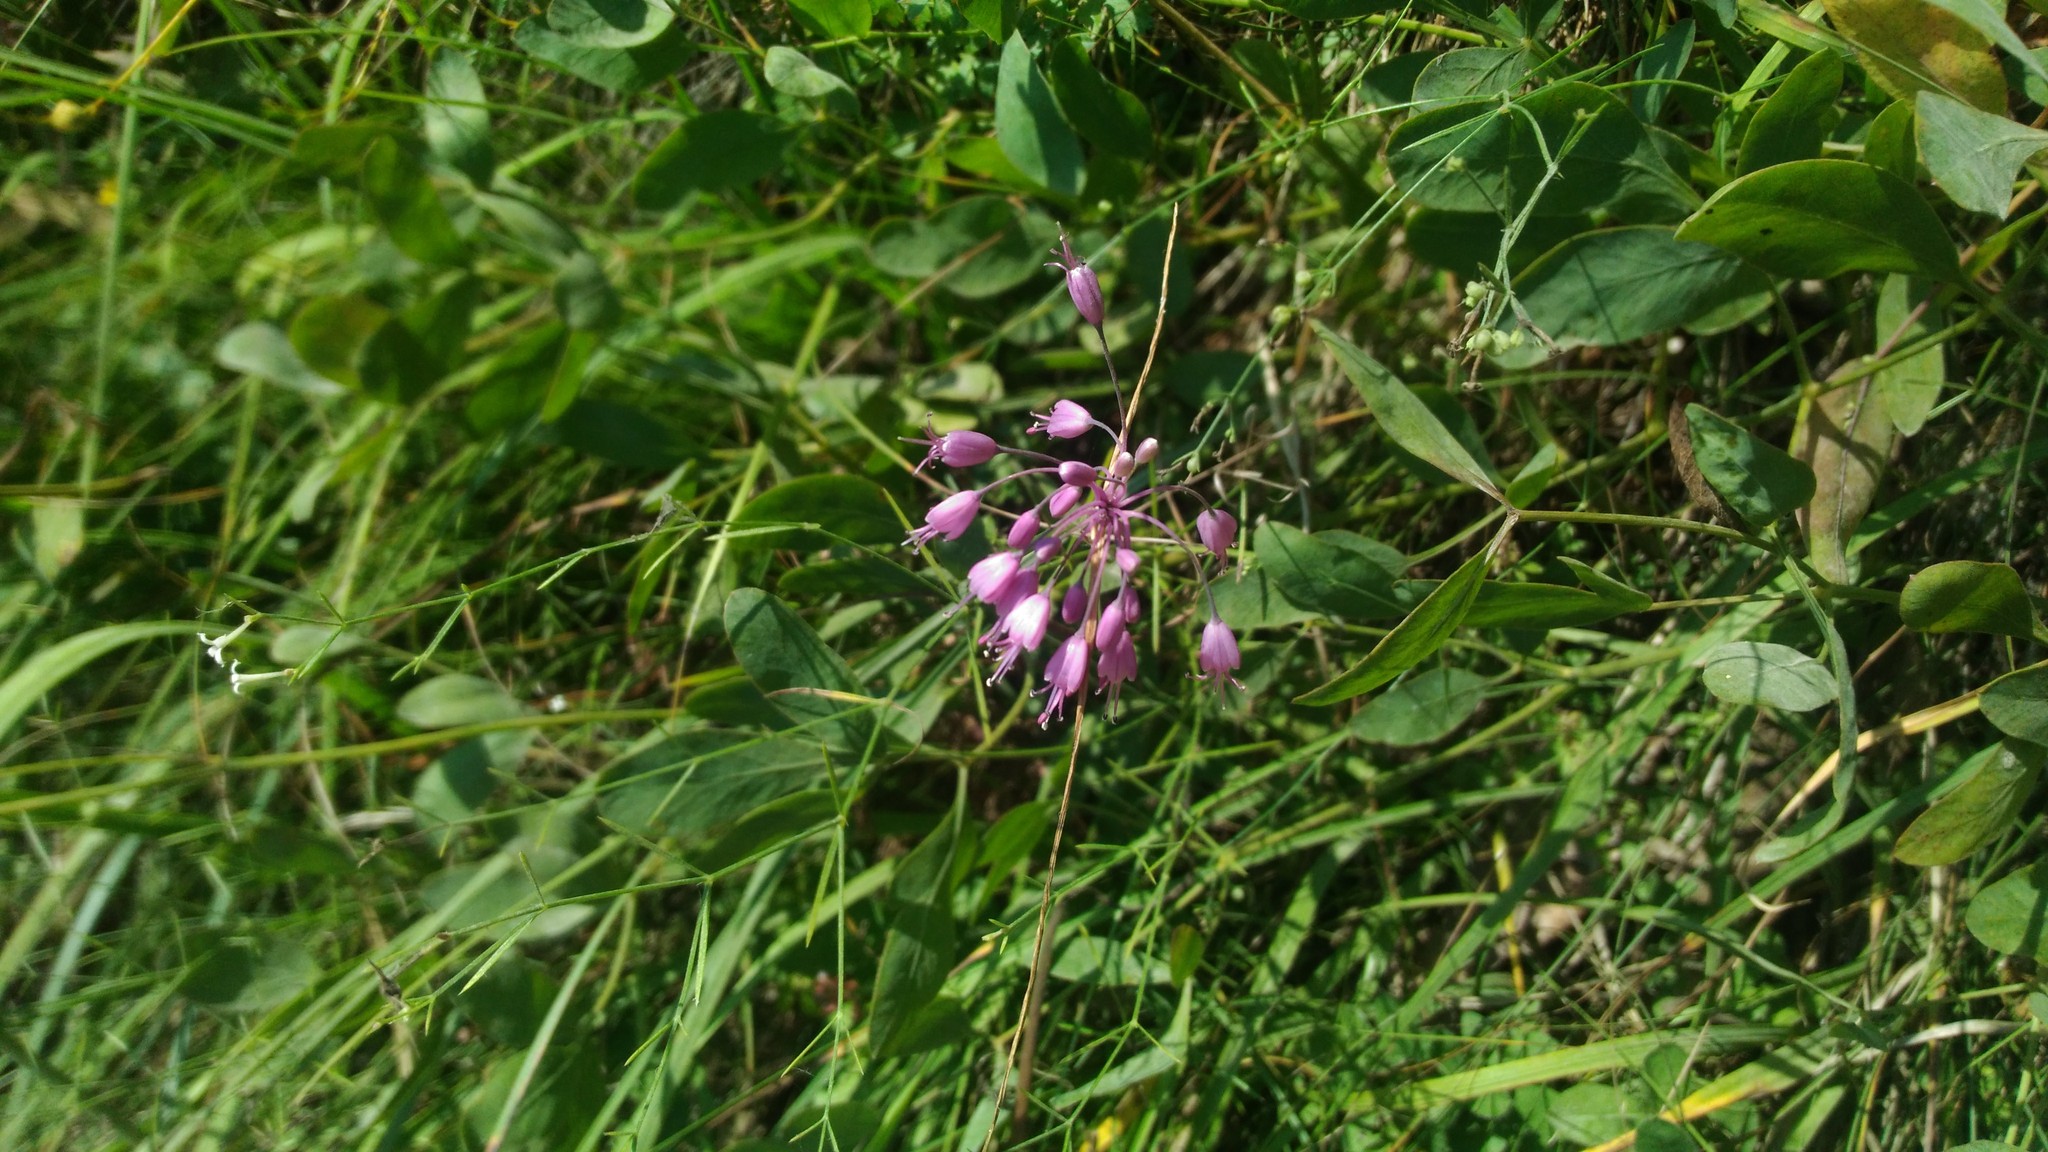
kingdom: Plantae
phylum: Tracheophyta
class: Liliopsida
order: Asparagales
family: Amaryllidaceae
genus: Allium
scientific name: Allium coloratum
